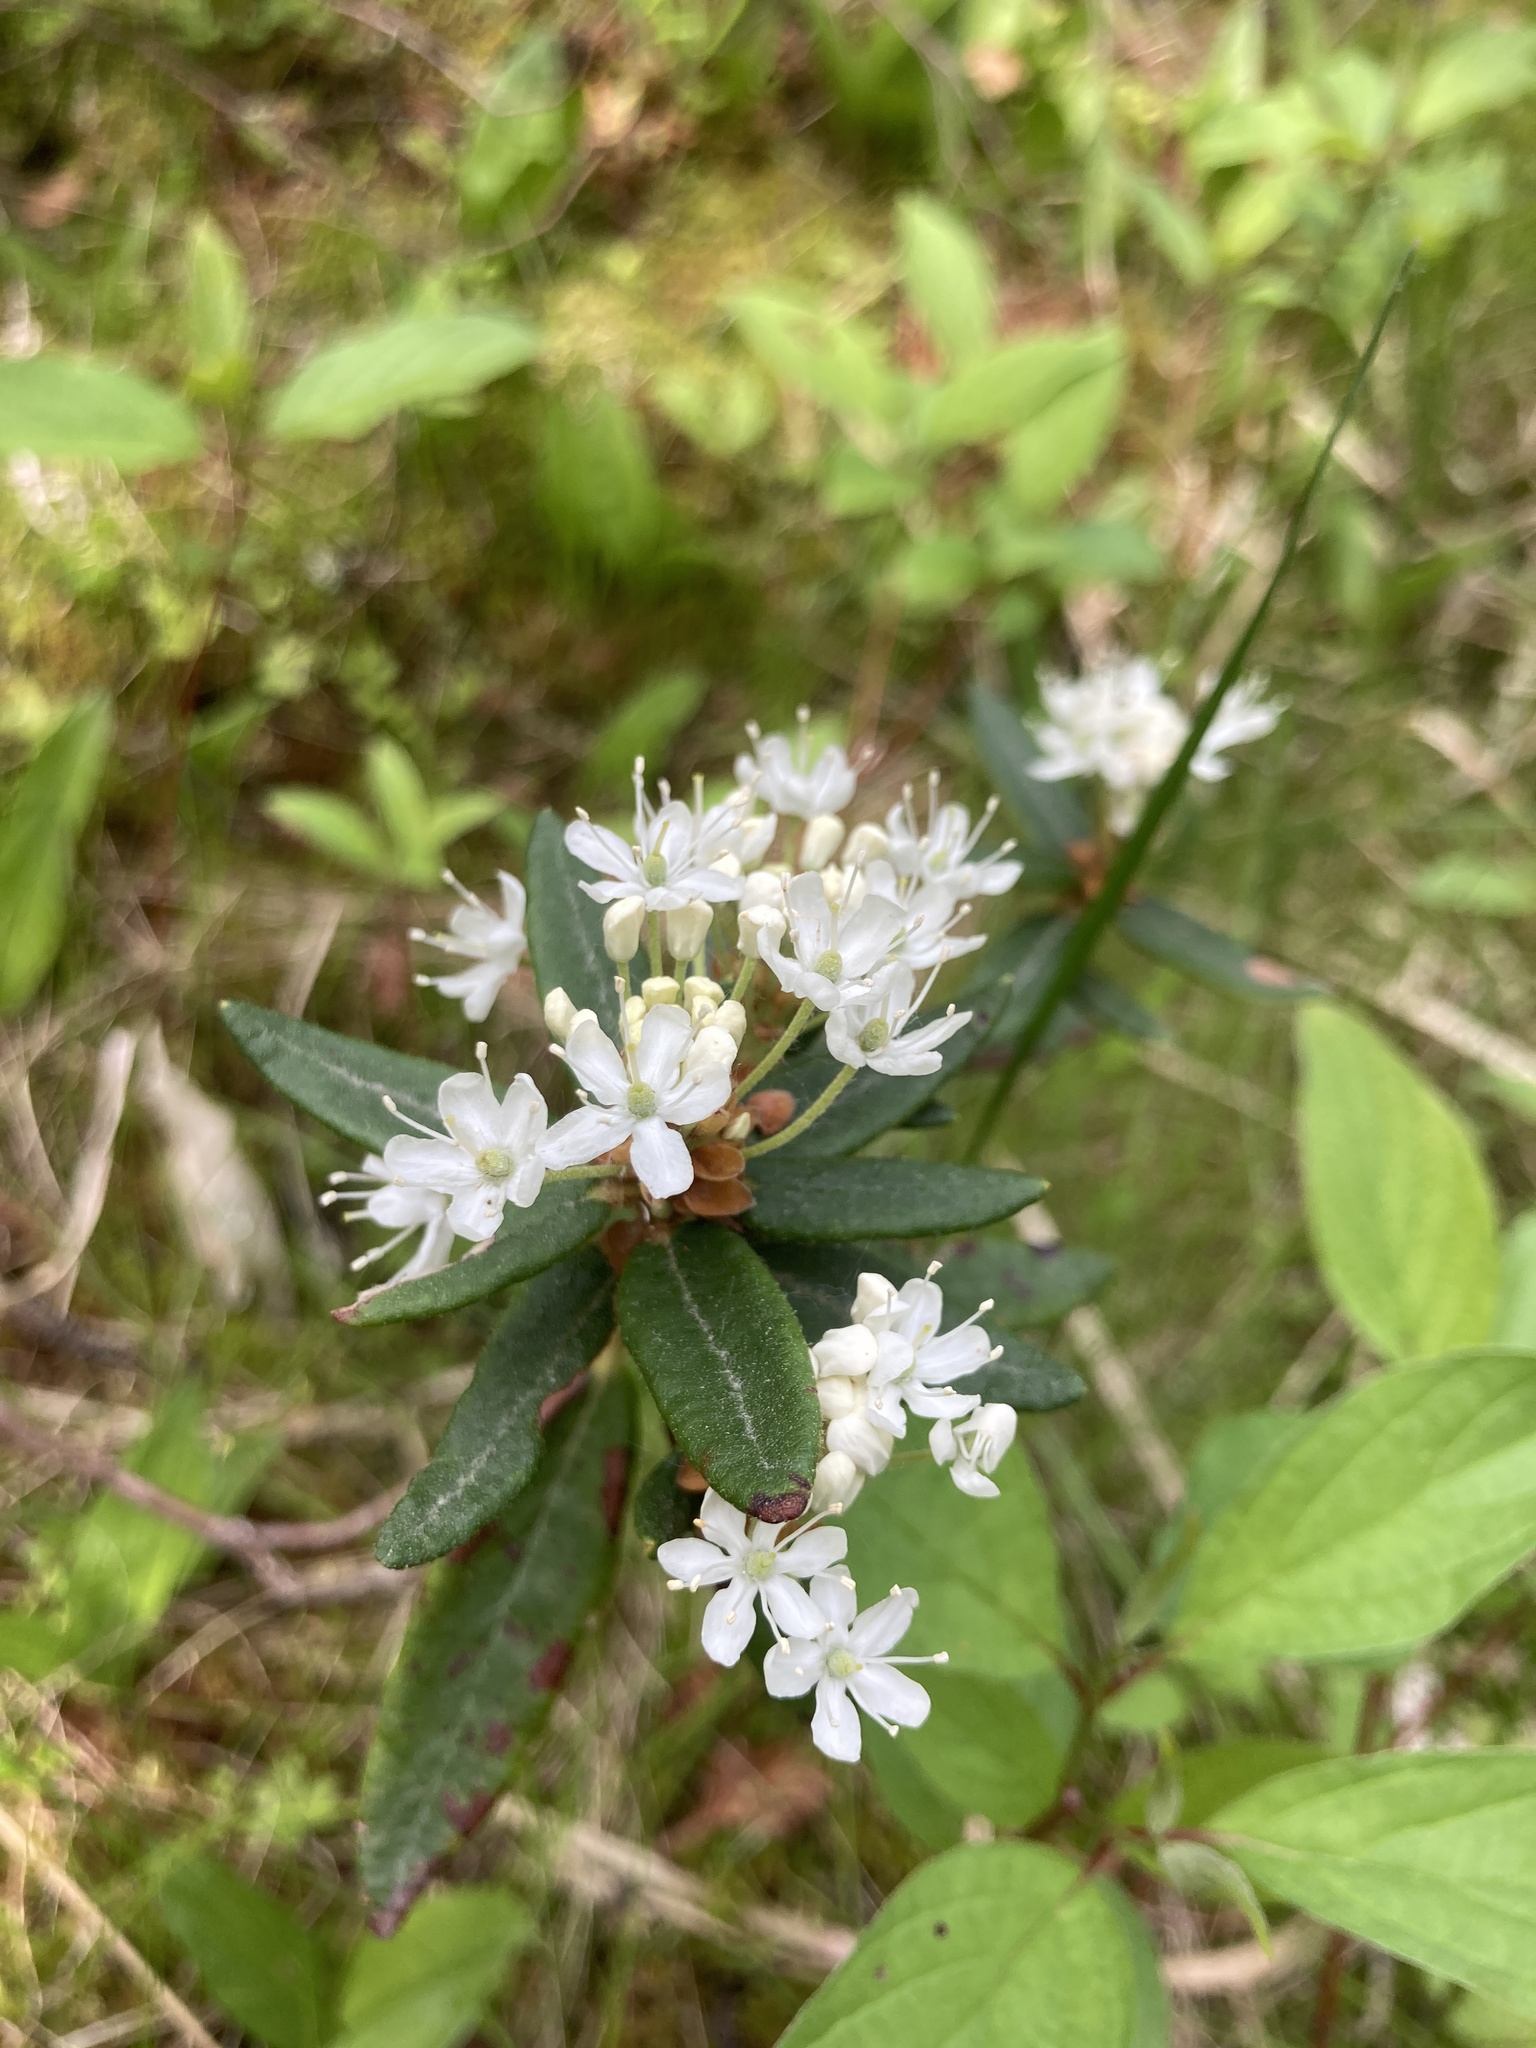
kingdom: Plantae
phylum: Tracheophyta
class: Magnoliopsida
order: Ericales
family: Ericaceae
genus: Rhododendron
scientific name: Rhododendron groenlandicum
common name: Bog labrador tea
